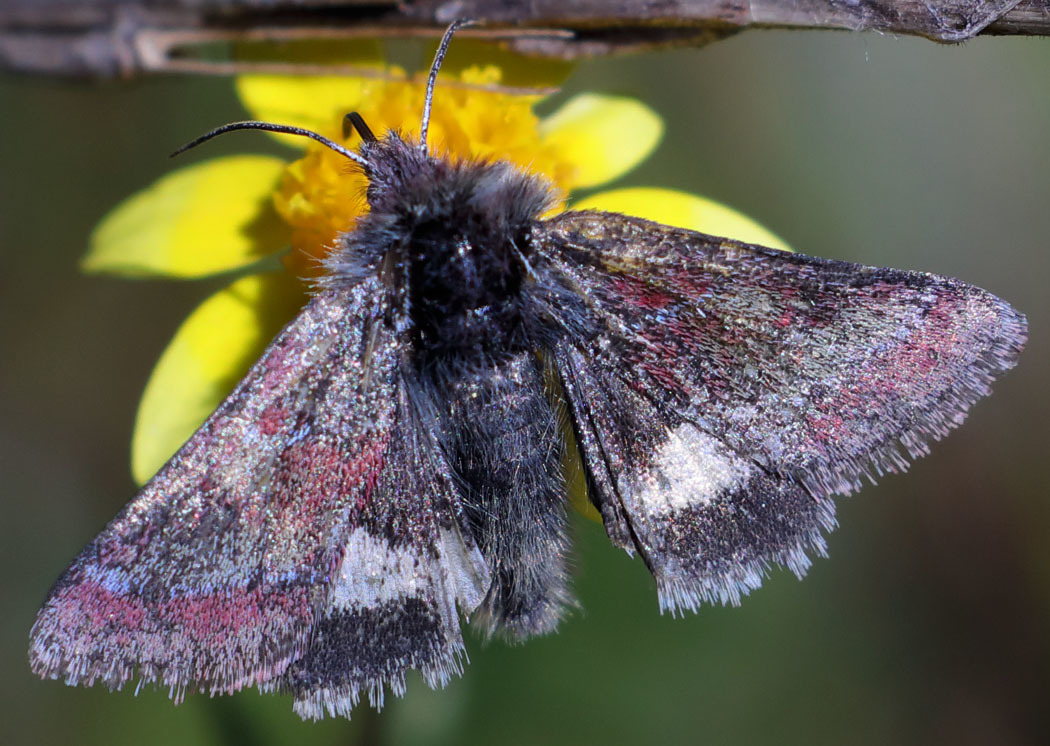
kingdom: Animalia
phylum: Arthropoda
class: Insecta
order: Lepidoptera
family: Noctuidae
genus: Schinia
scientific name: Schinia pulchripennis
